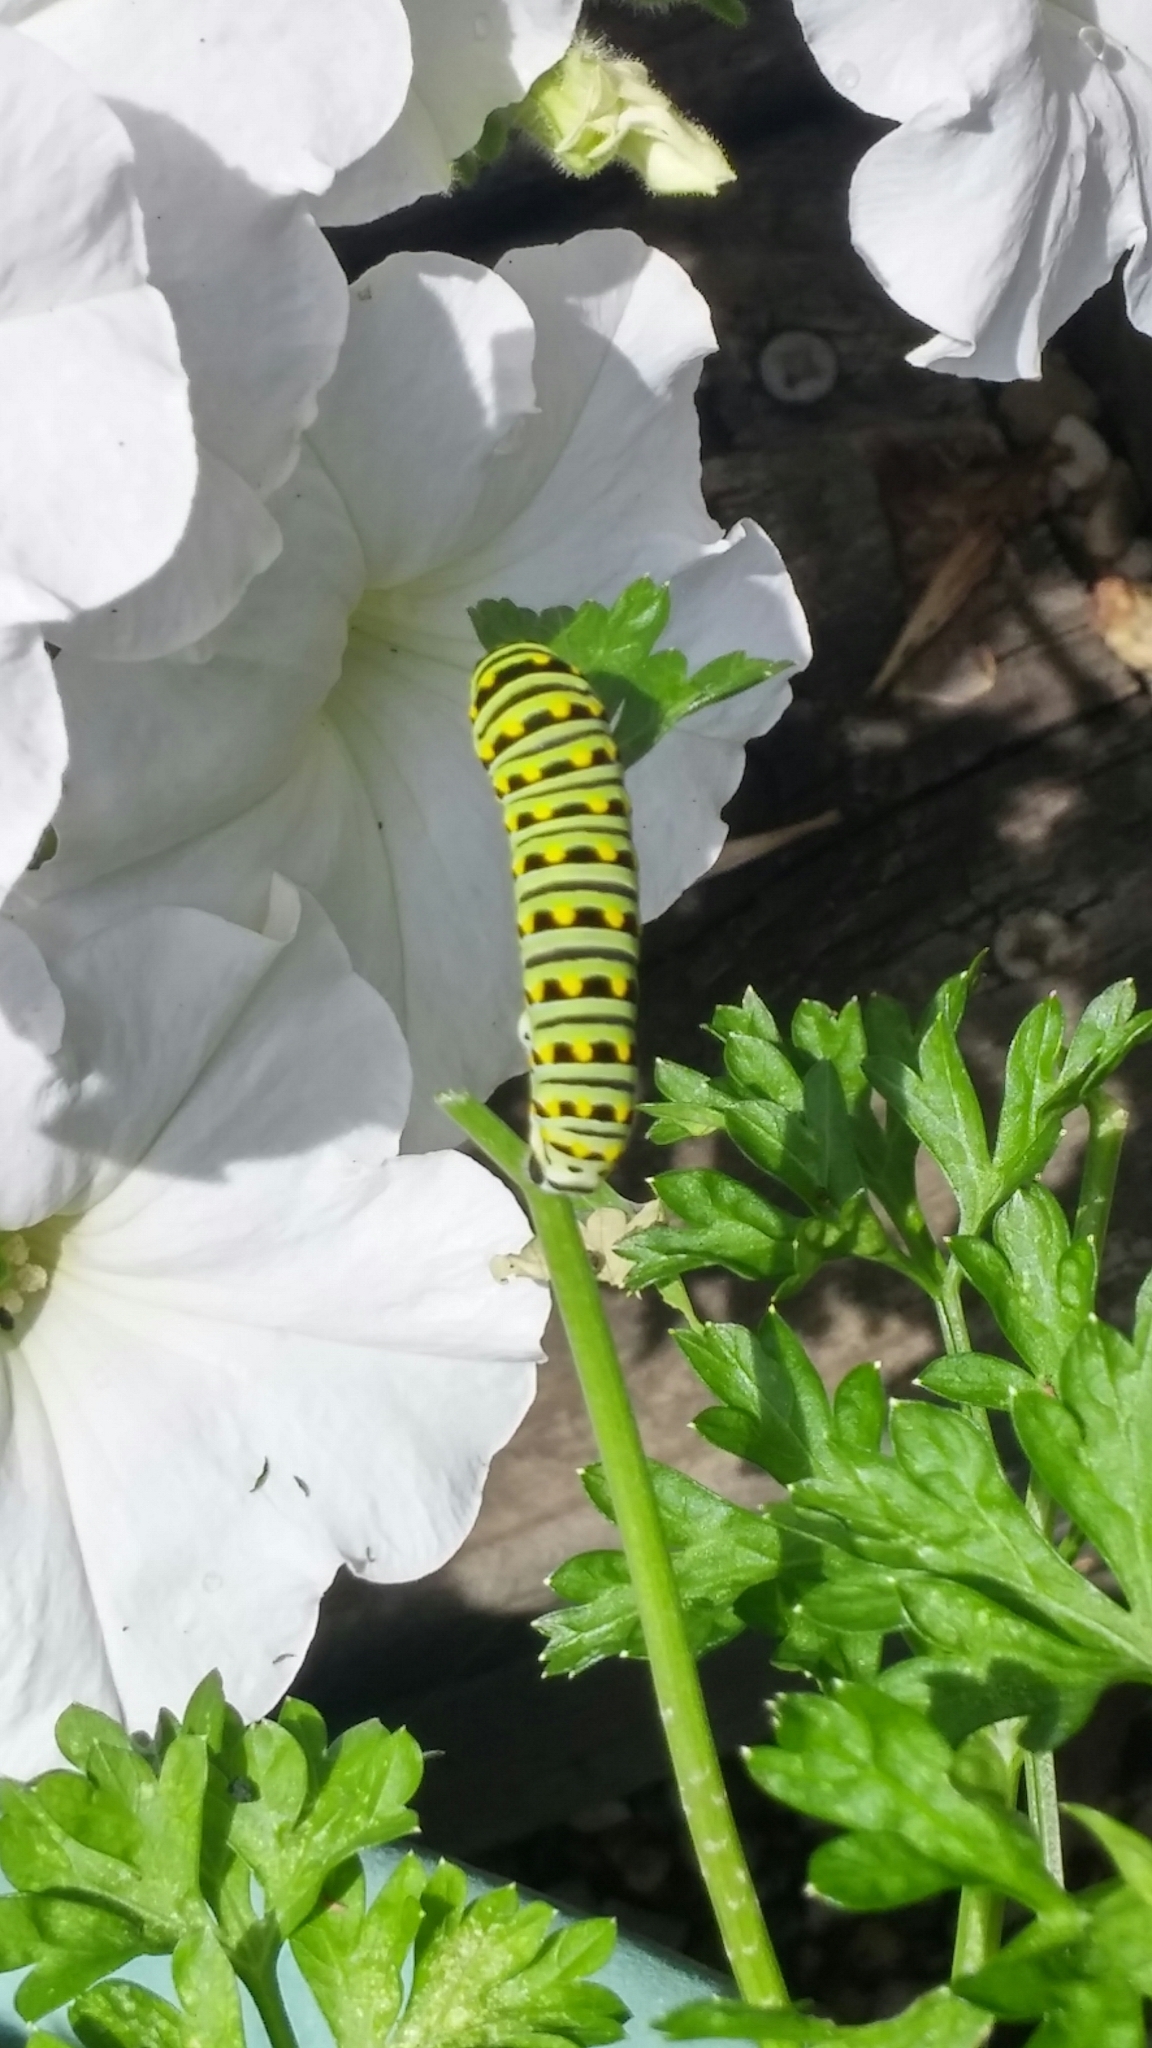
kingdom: Animalia
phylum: Arthropoda
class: Insecta
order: Lepidoptera
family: Papilionidae
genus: Papilio
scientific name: Papilio polyxenes
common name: Black swallowtail
